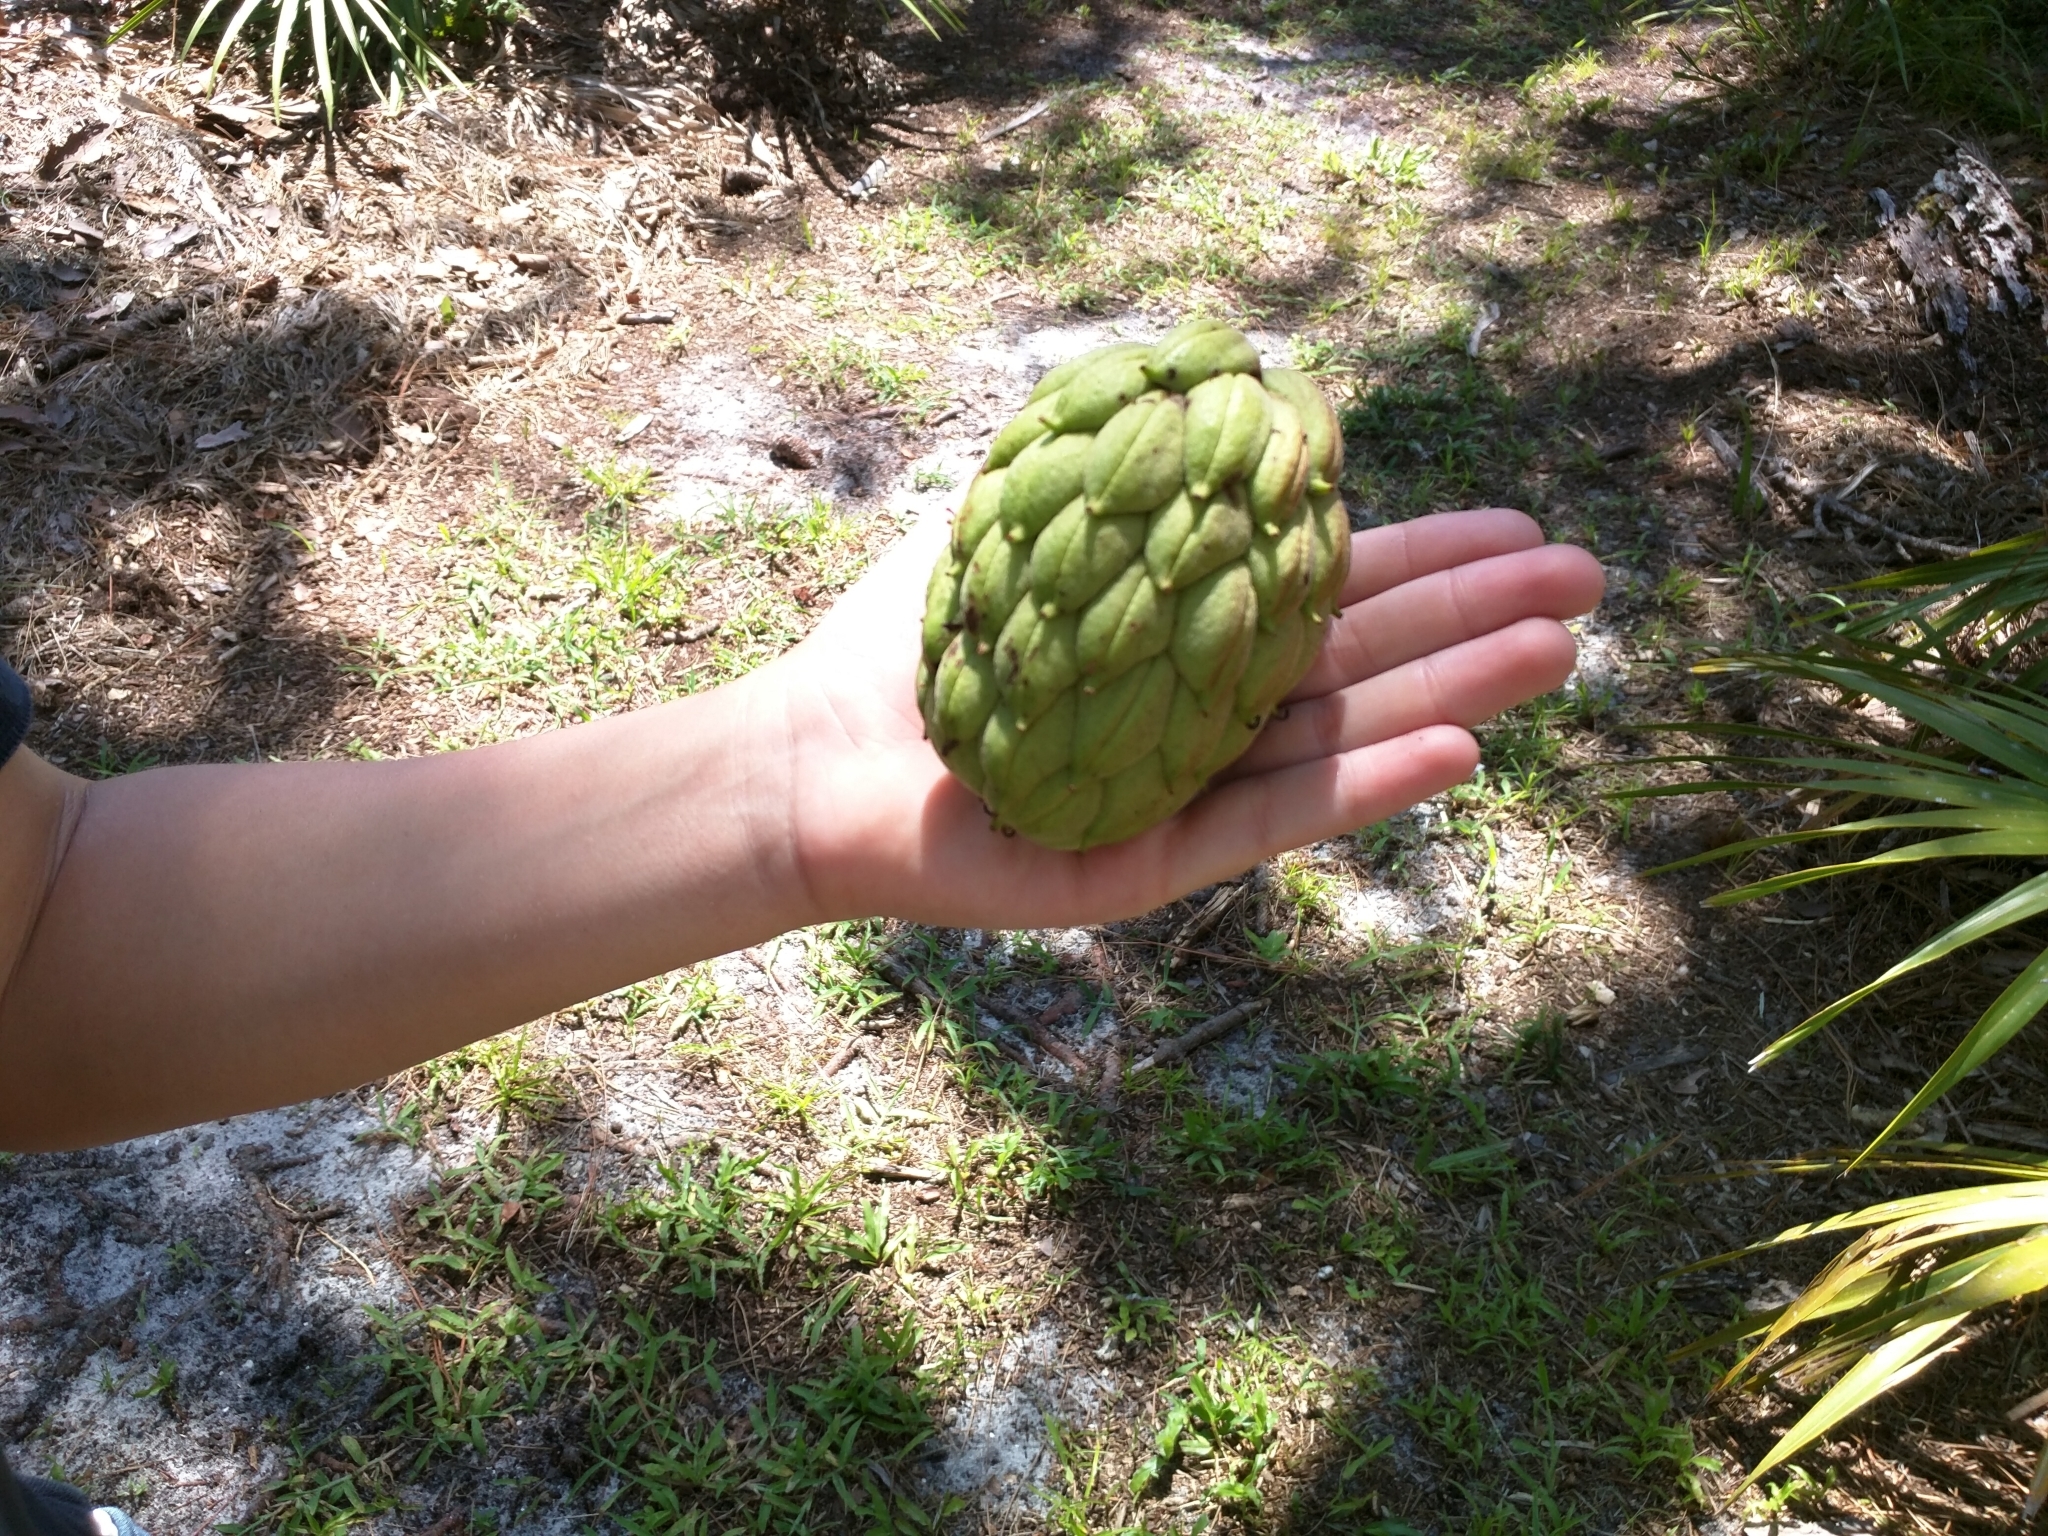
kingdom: Plantae
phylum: Tracheophyta
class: Magnoliopsida
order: Magnoliales
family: Magnoliaceae
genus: Magnolia
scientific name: Magnolia grandiflora
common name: Southern magnolia
